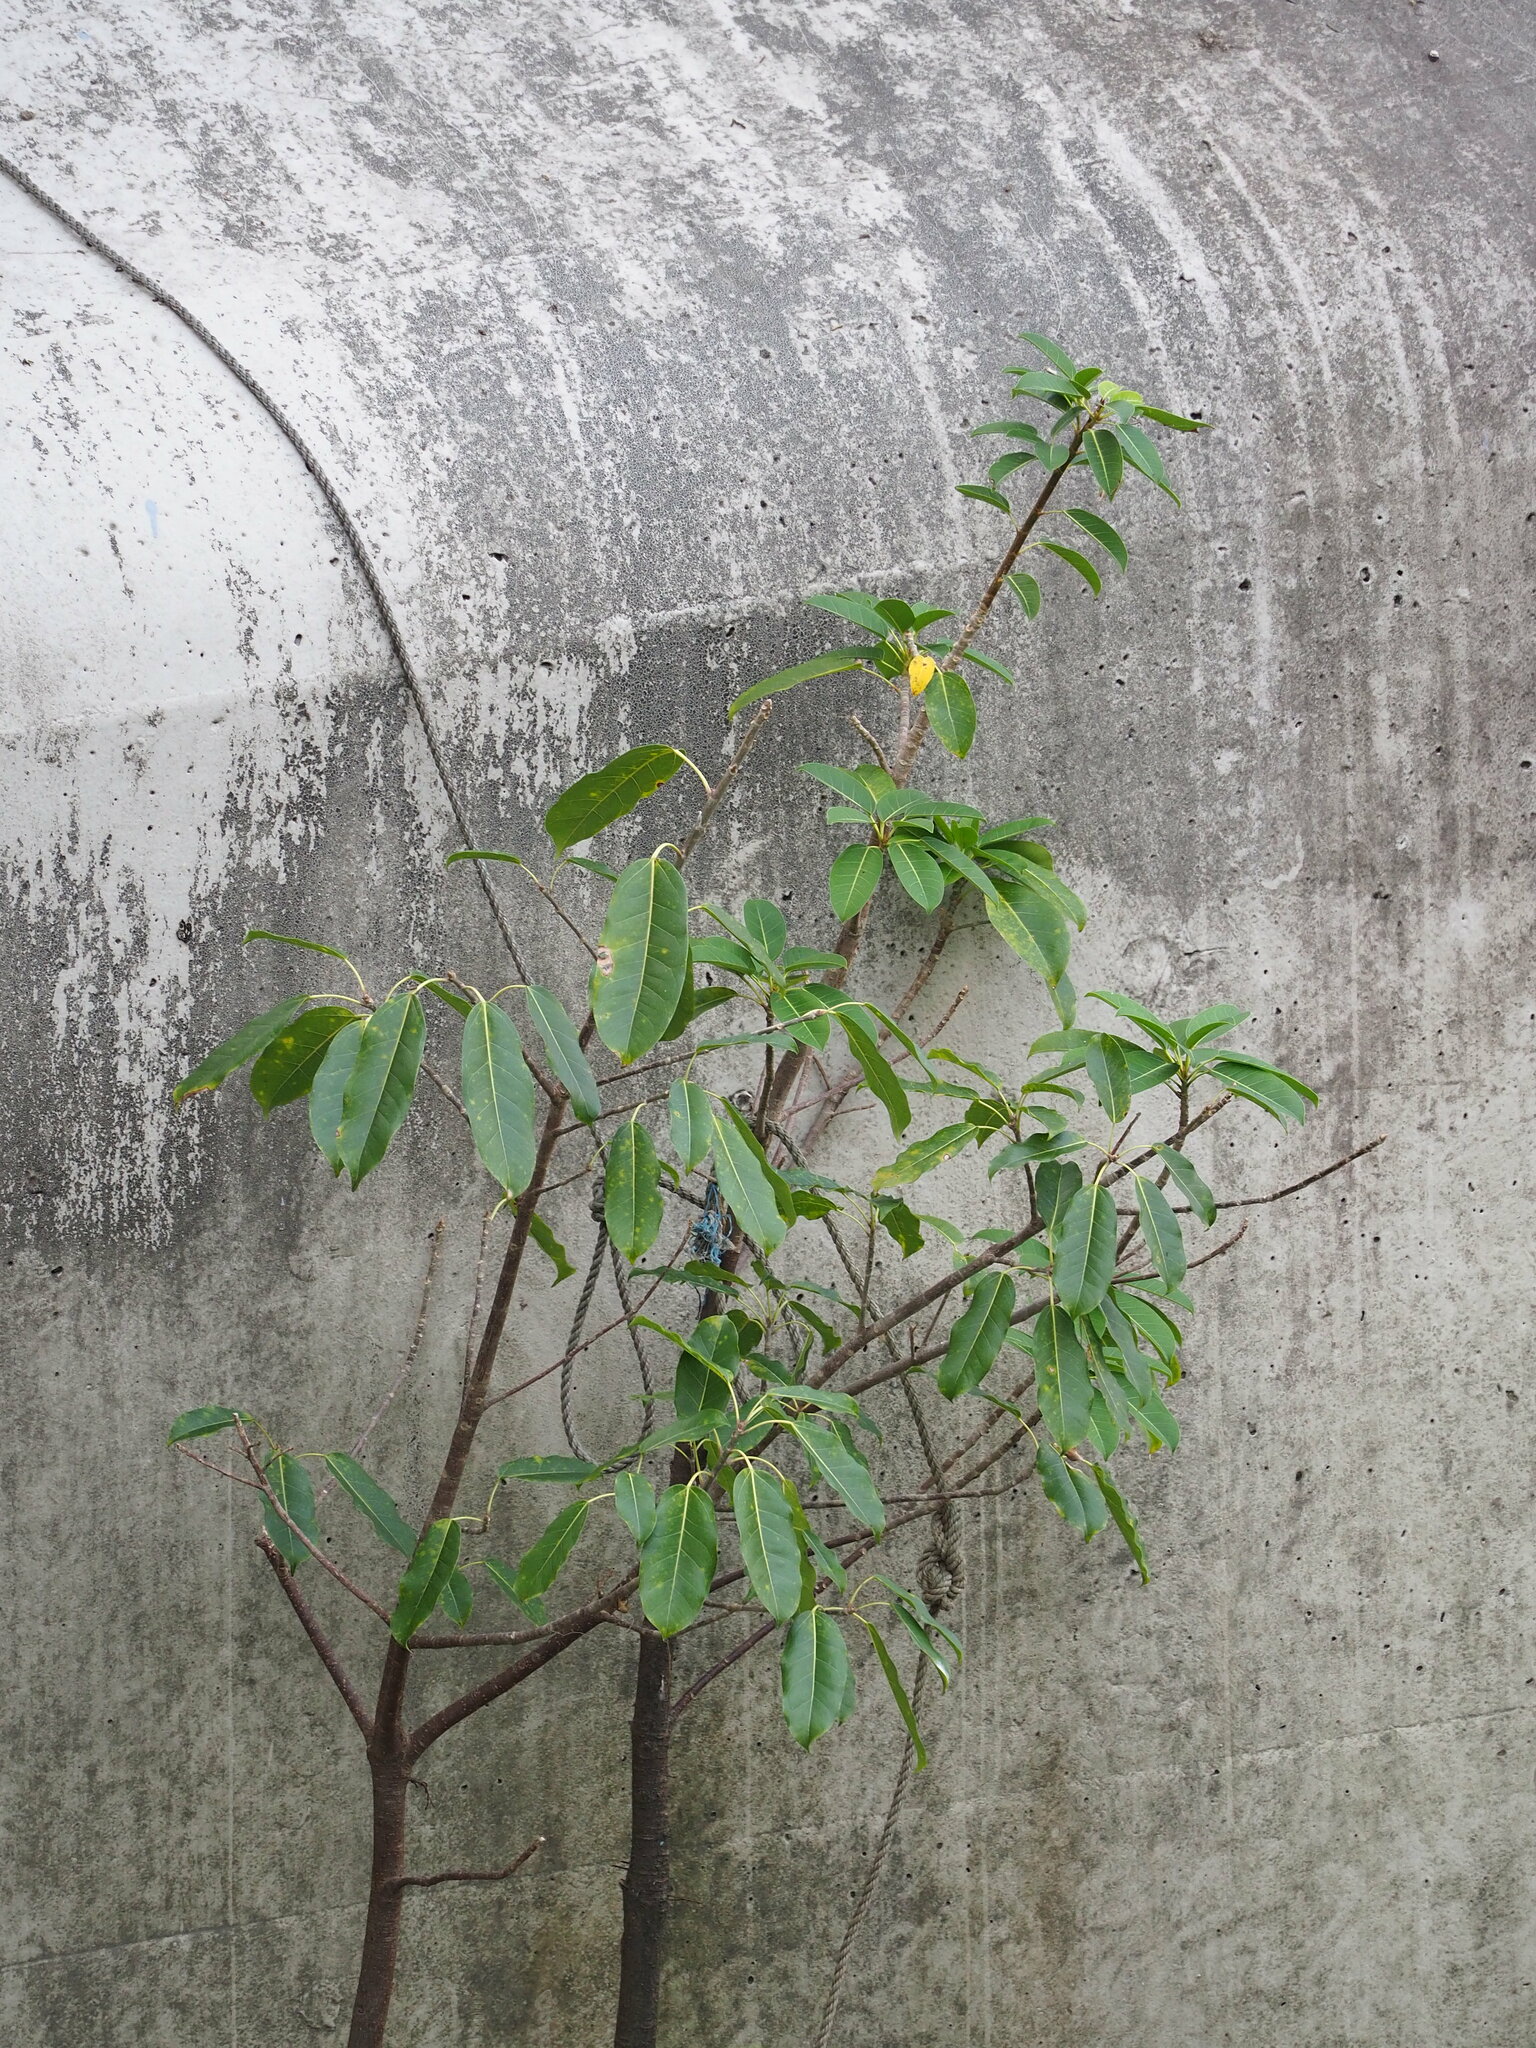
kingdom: Plantae
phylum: Tracheophyta
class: Magnoliopsida
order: Rosales
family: Moraceae
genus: Ficus
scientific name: Ficus subpisocarpa
